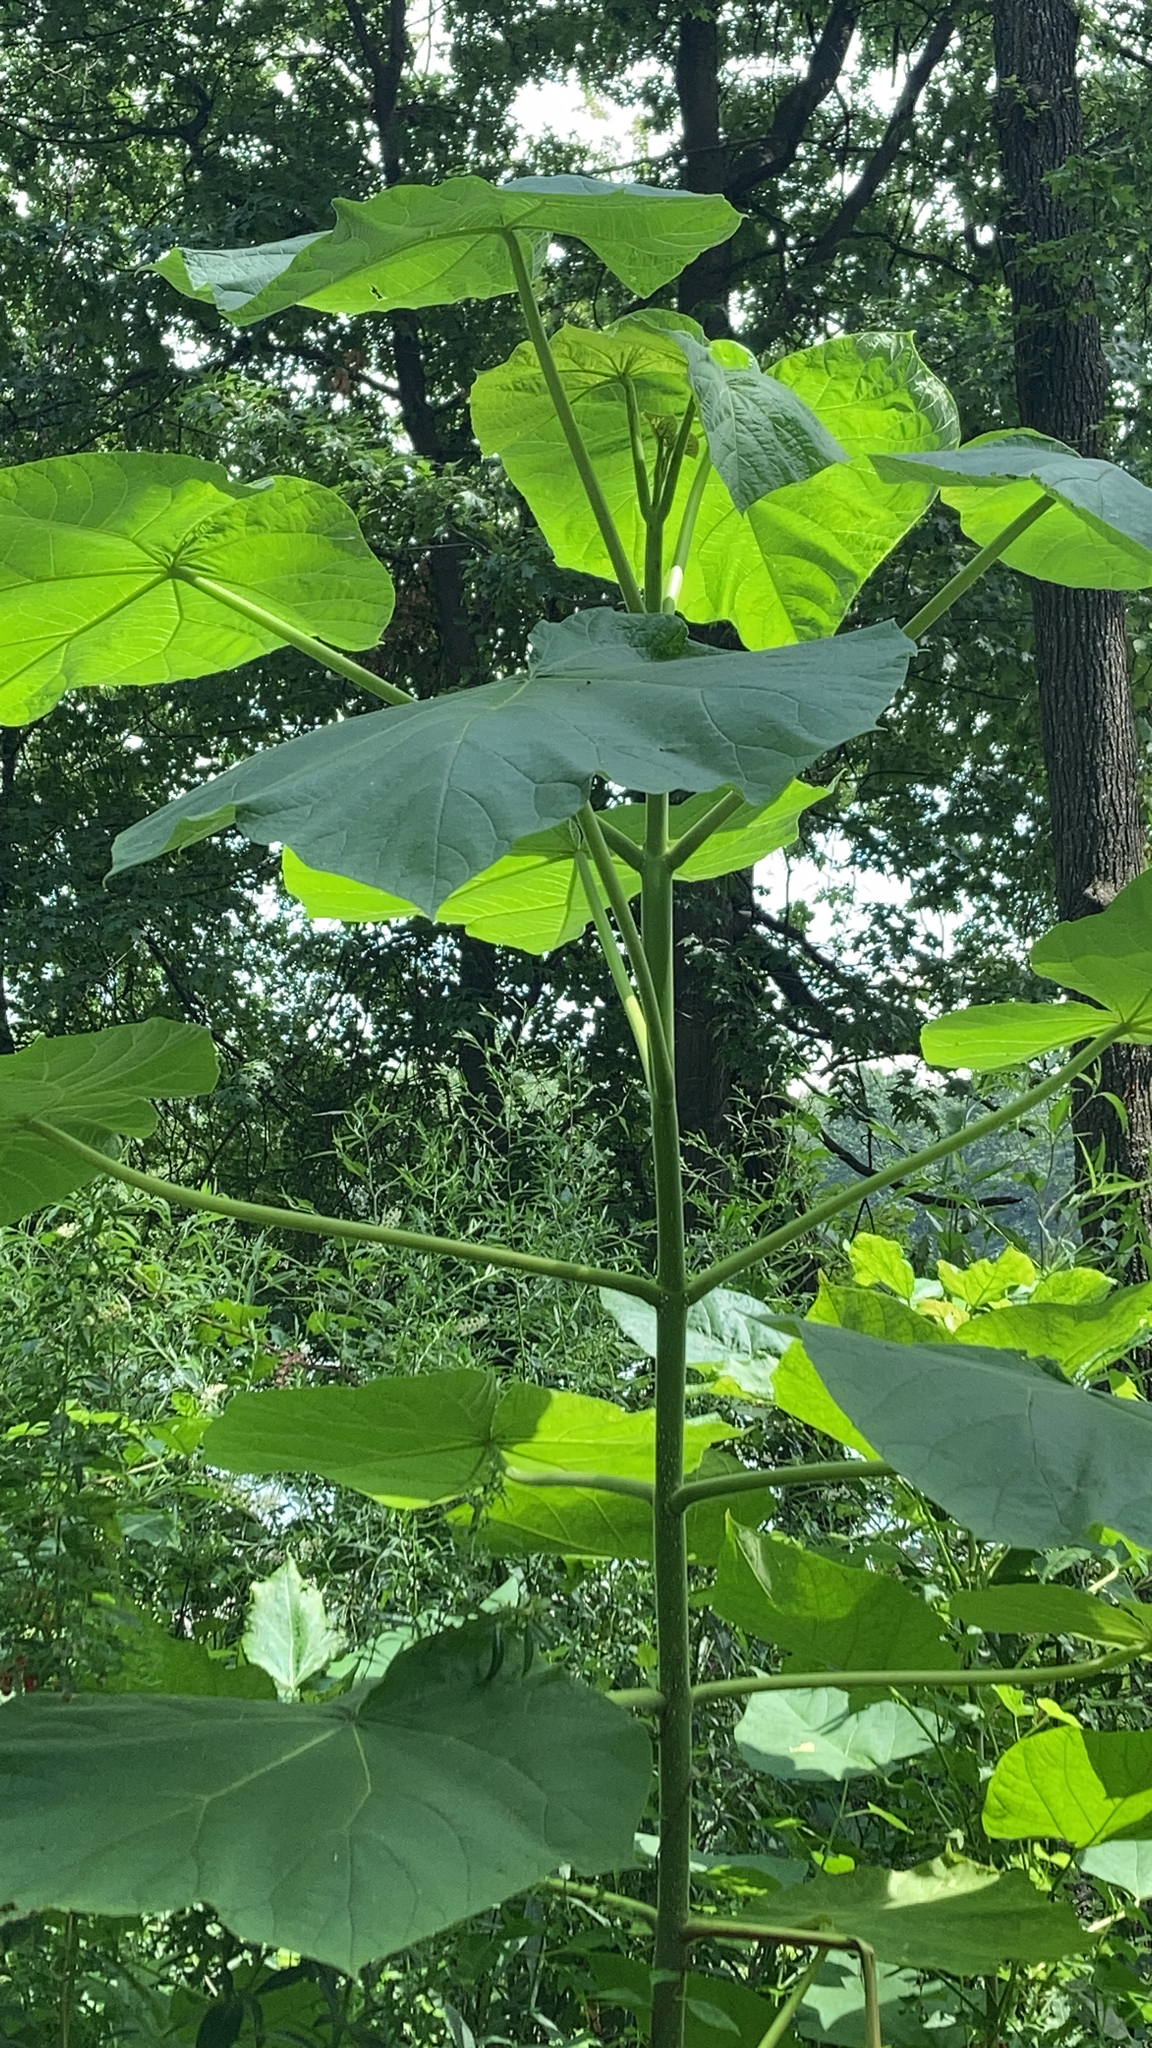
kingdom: Plantae
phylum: Tracheophyta
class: Magnoliopsida
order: Lamiales
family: Paulowniaceae
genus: Paulownia
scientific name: Paulownia tomentosa
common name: Foxglove-tree
